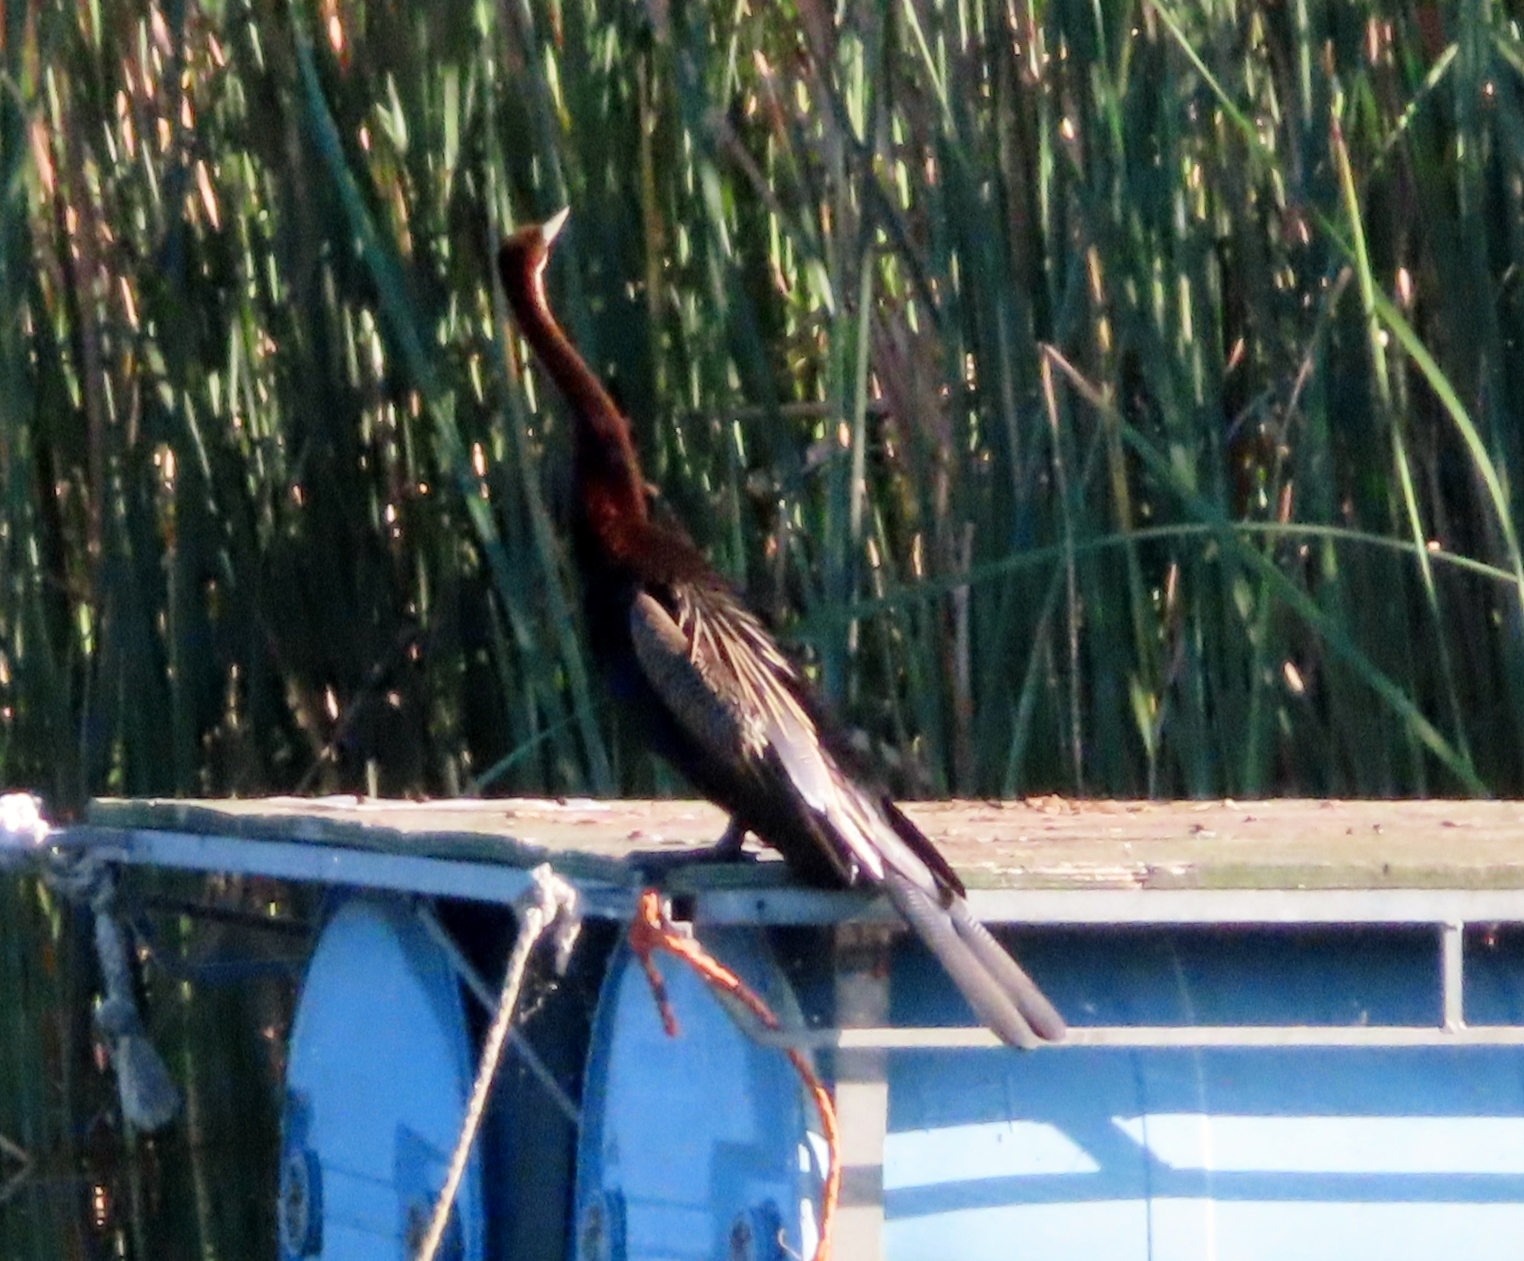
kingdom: Animalia
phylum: Chordata
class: Aves
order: Suliformes
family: Anhingidae
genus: Anhinga
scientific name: Anhinga rufa
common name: African darter
